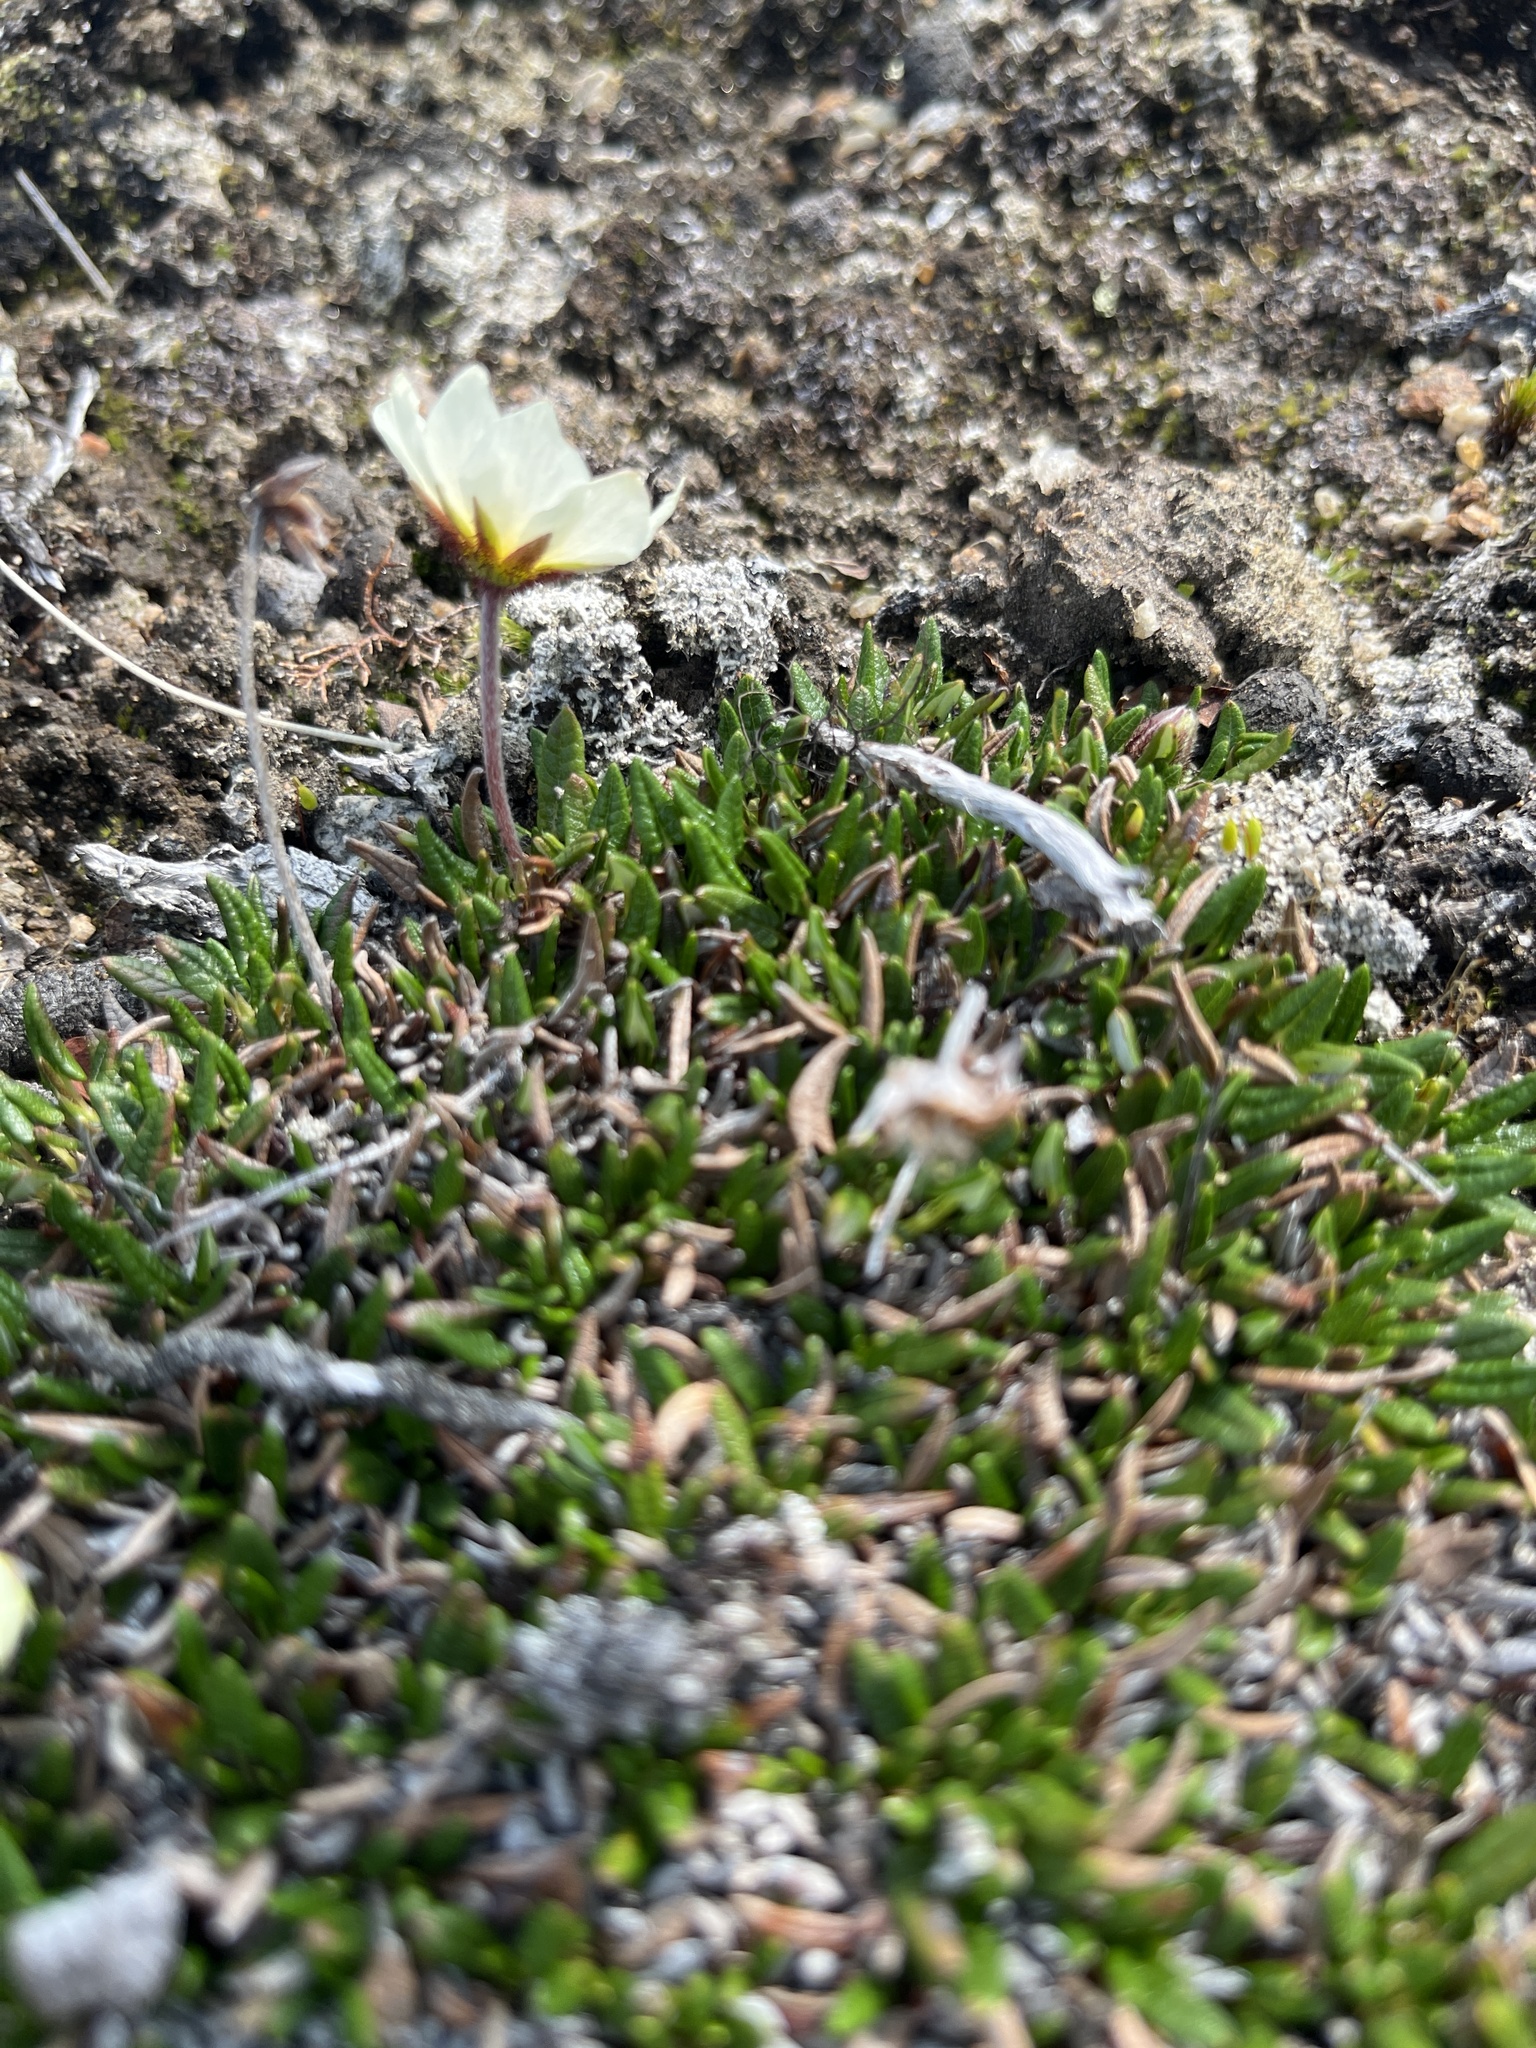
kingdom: Plantae
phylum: Tracheophyta
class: Magnoliopsida
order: Rosales
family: Rosaceae
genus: Dryas
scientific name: Dryas integrifolia
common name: Entire-leaved mountain avens
